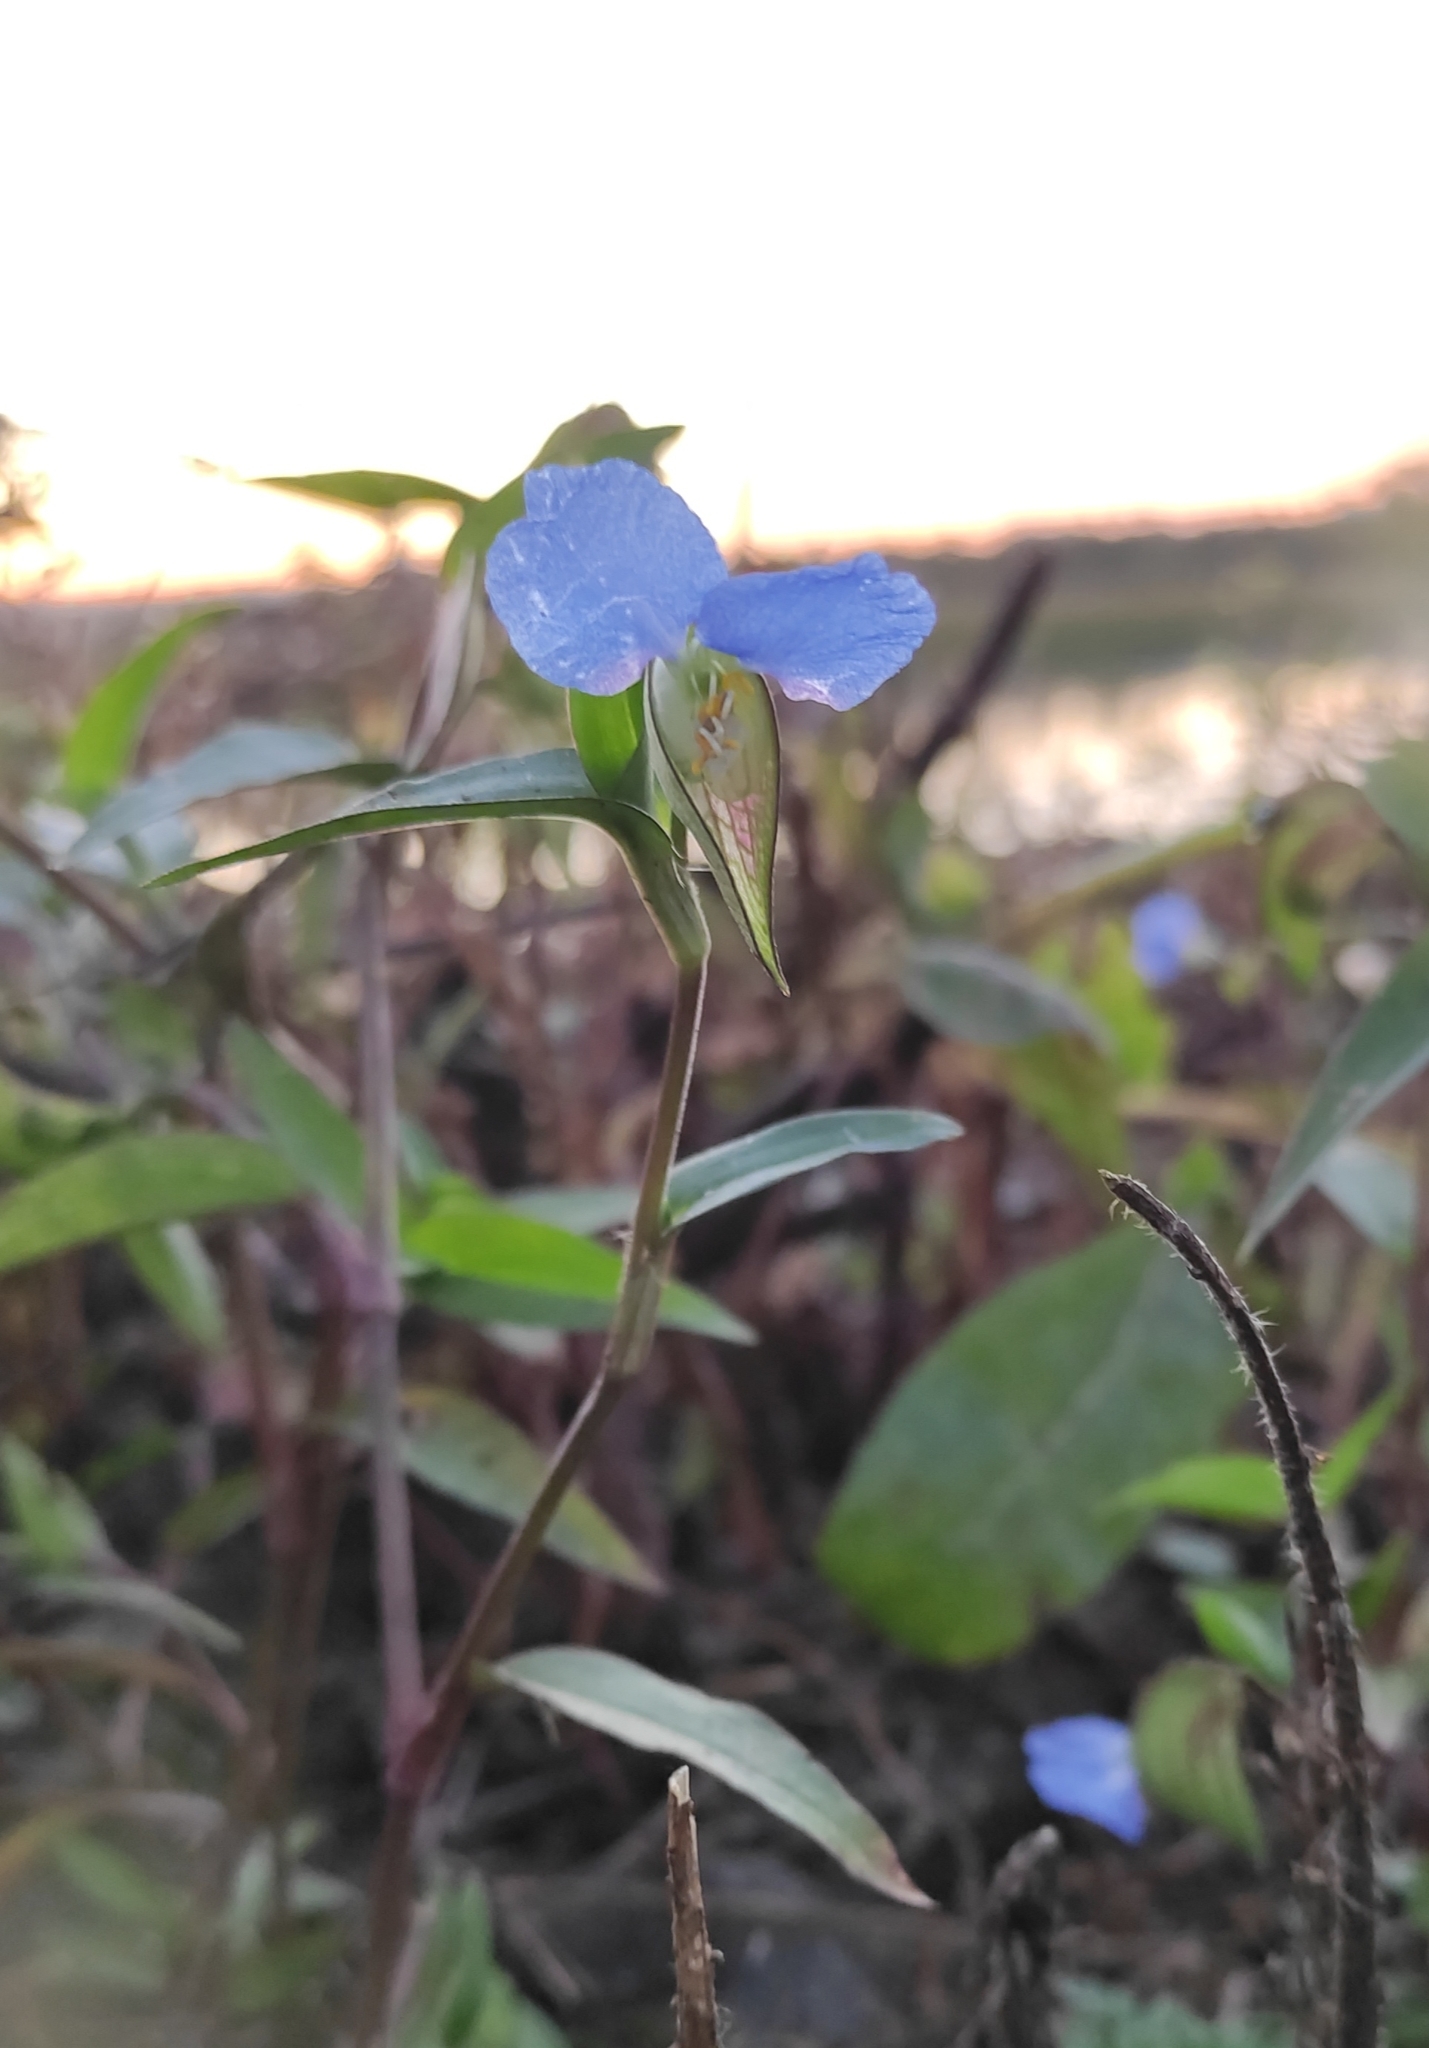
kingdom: Plantae
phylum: Tracheophyta
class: Liliopsida
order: Commelinales
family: Commelinaceae
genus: Commelina
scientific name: Commelina communis
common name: Asiatic dayflower
